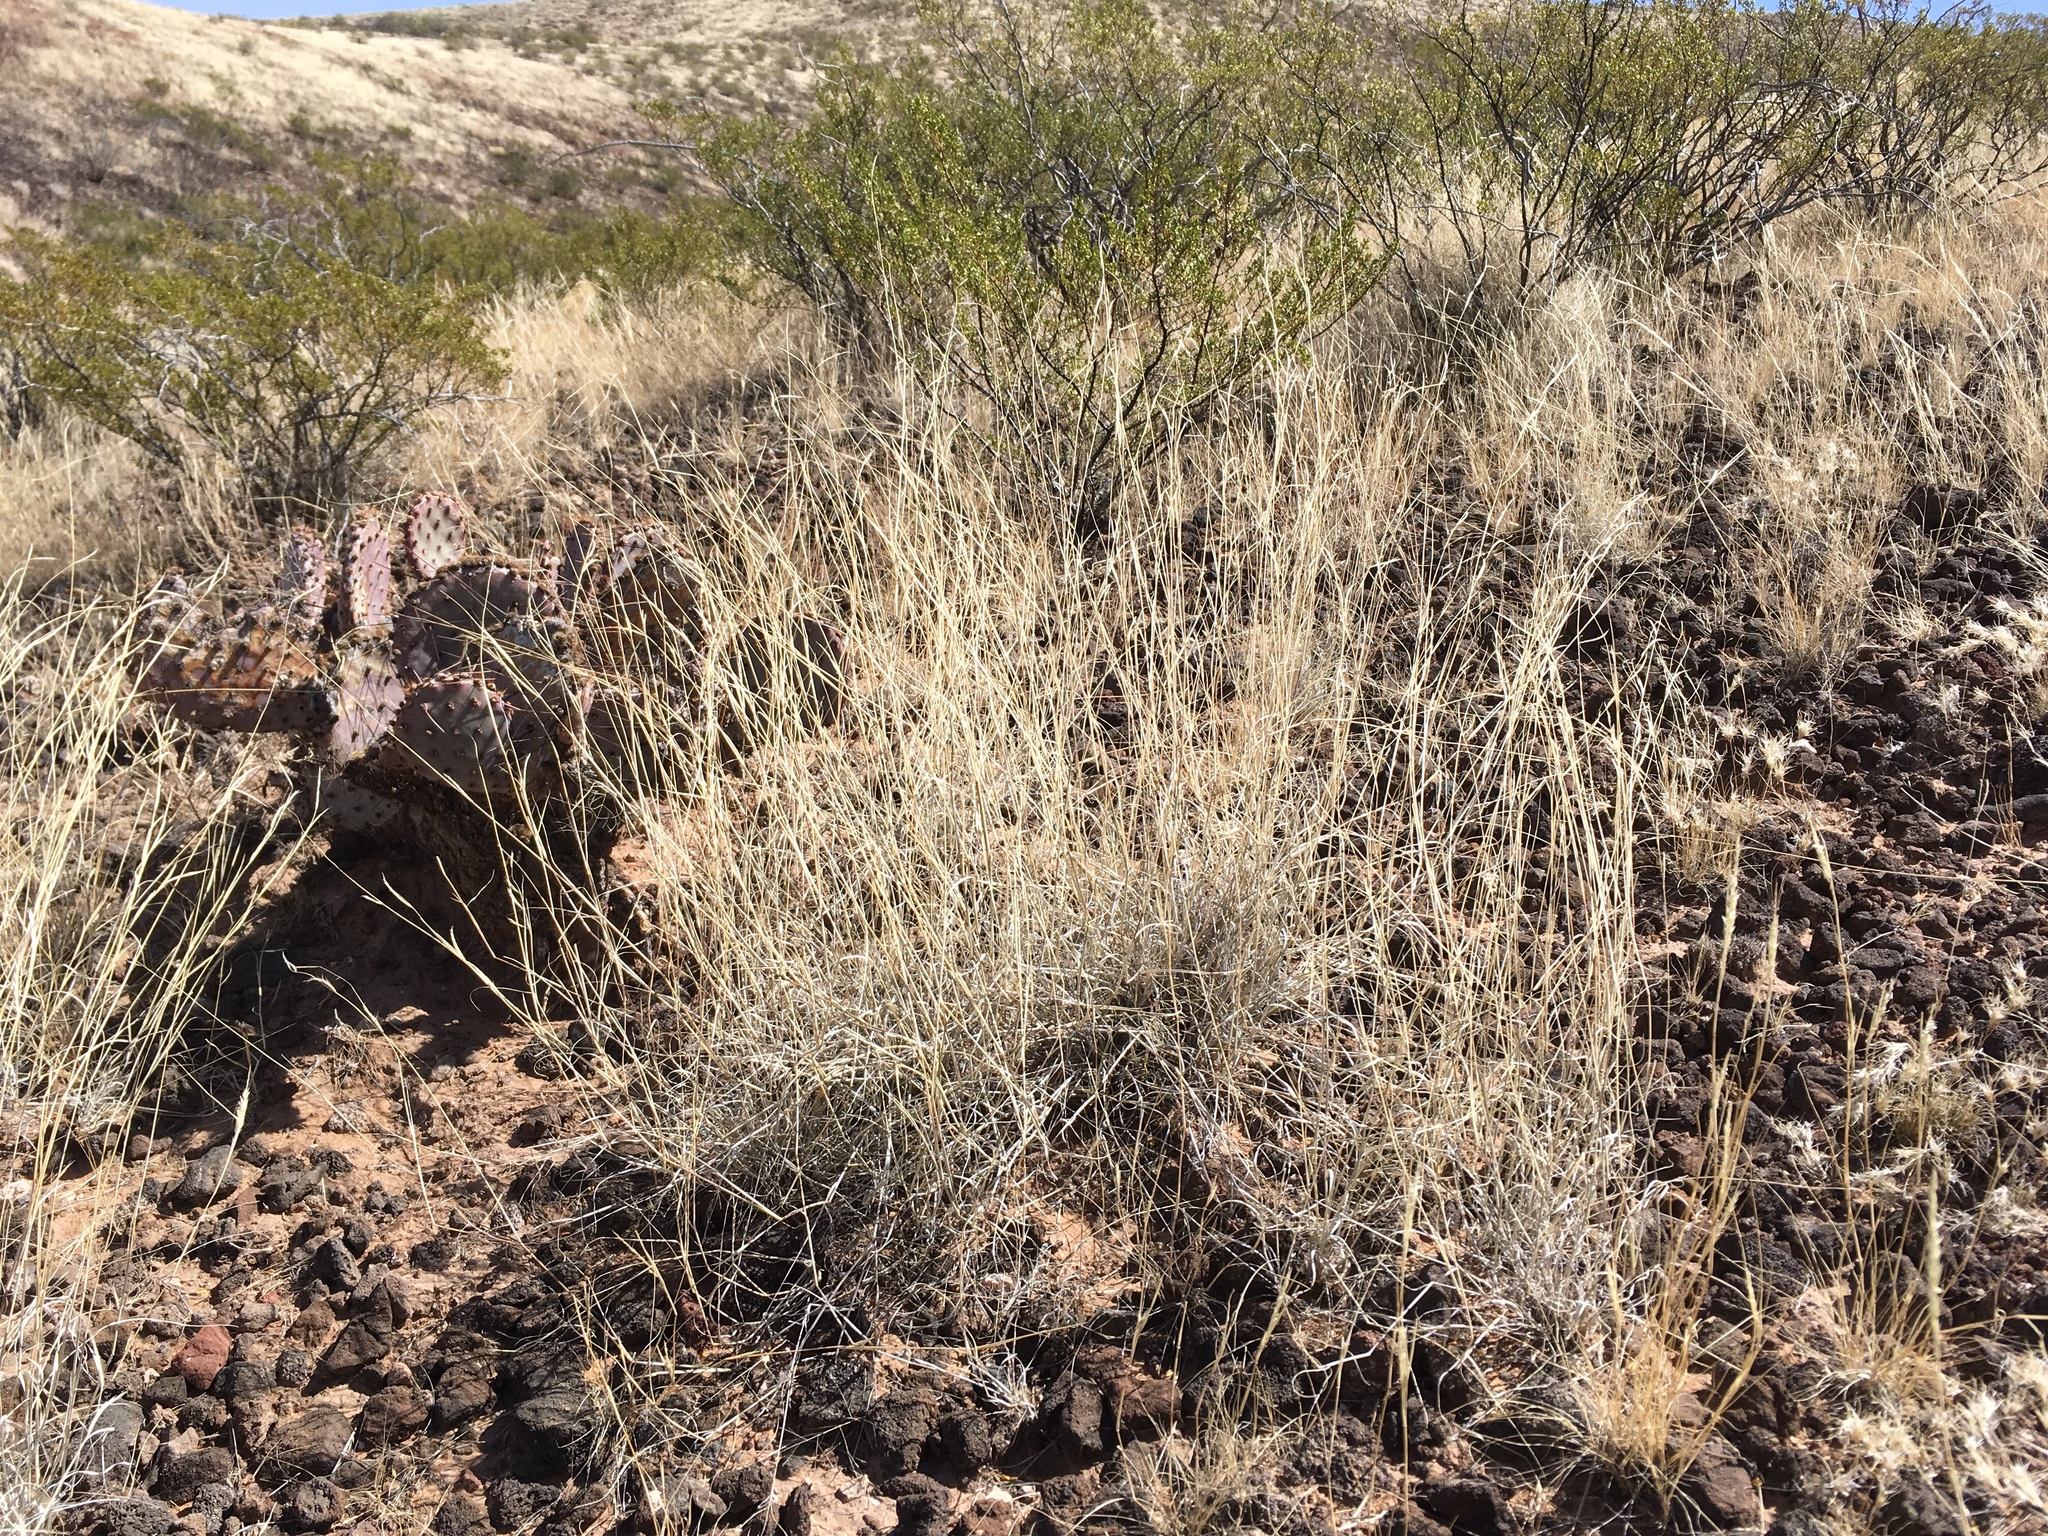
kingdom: Plantae
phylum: Tracheophyta
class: Liliopsida
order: Poales
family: Poaceae
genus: Bouteloua
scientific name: Bouteloua eriopoda
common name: Woolly foot grama
